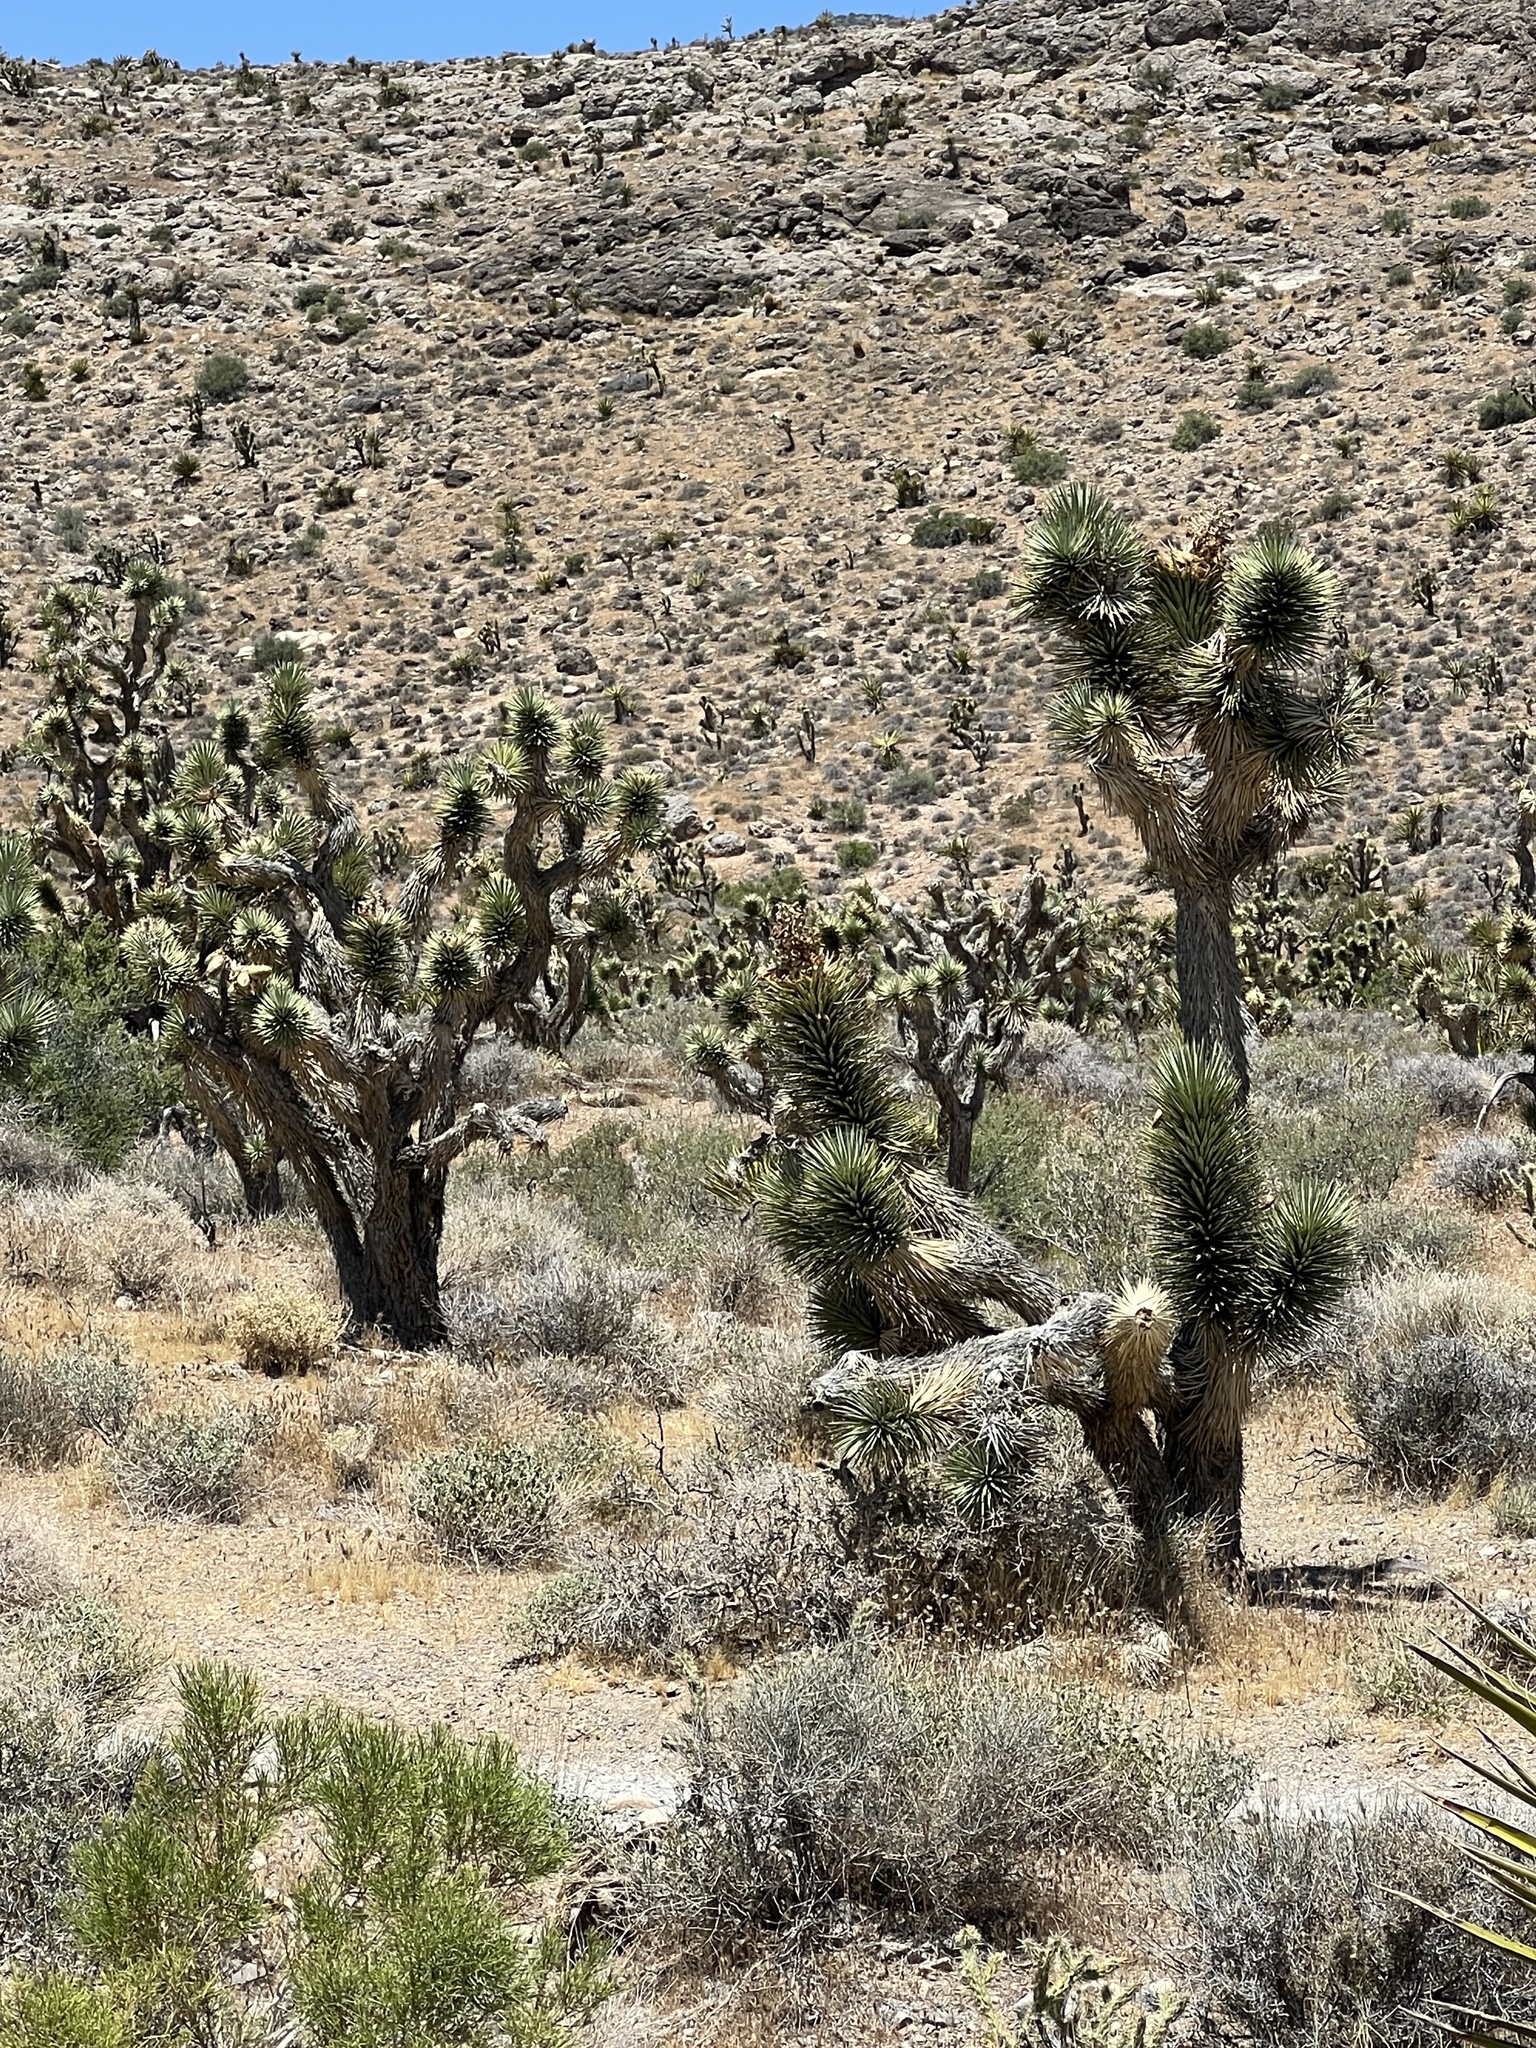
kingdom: Plantae
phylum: Tracheophyta
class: Liliopsida
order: Asparagales
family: Asparagaceae
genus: Yucca
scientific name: Yucca brevifolia
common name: Joshua tree
